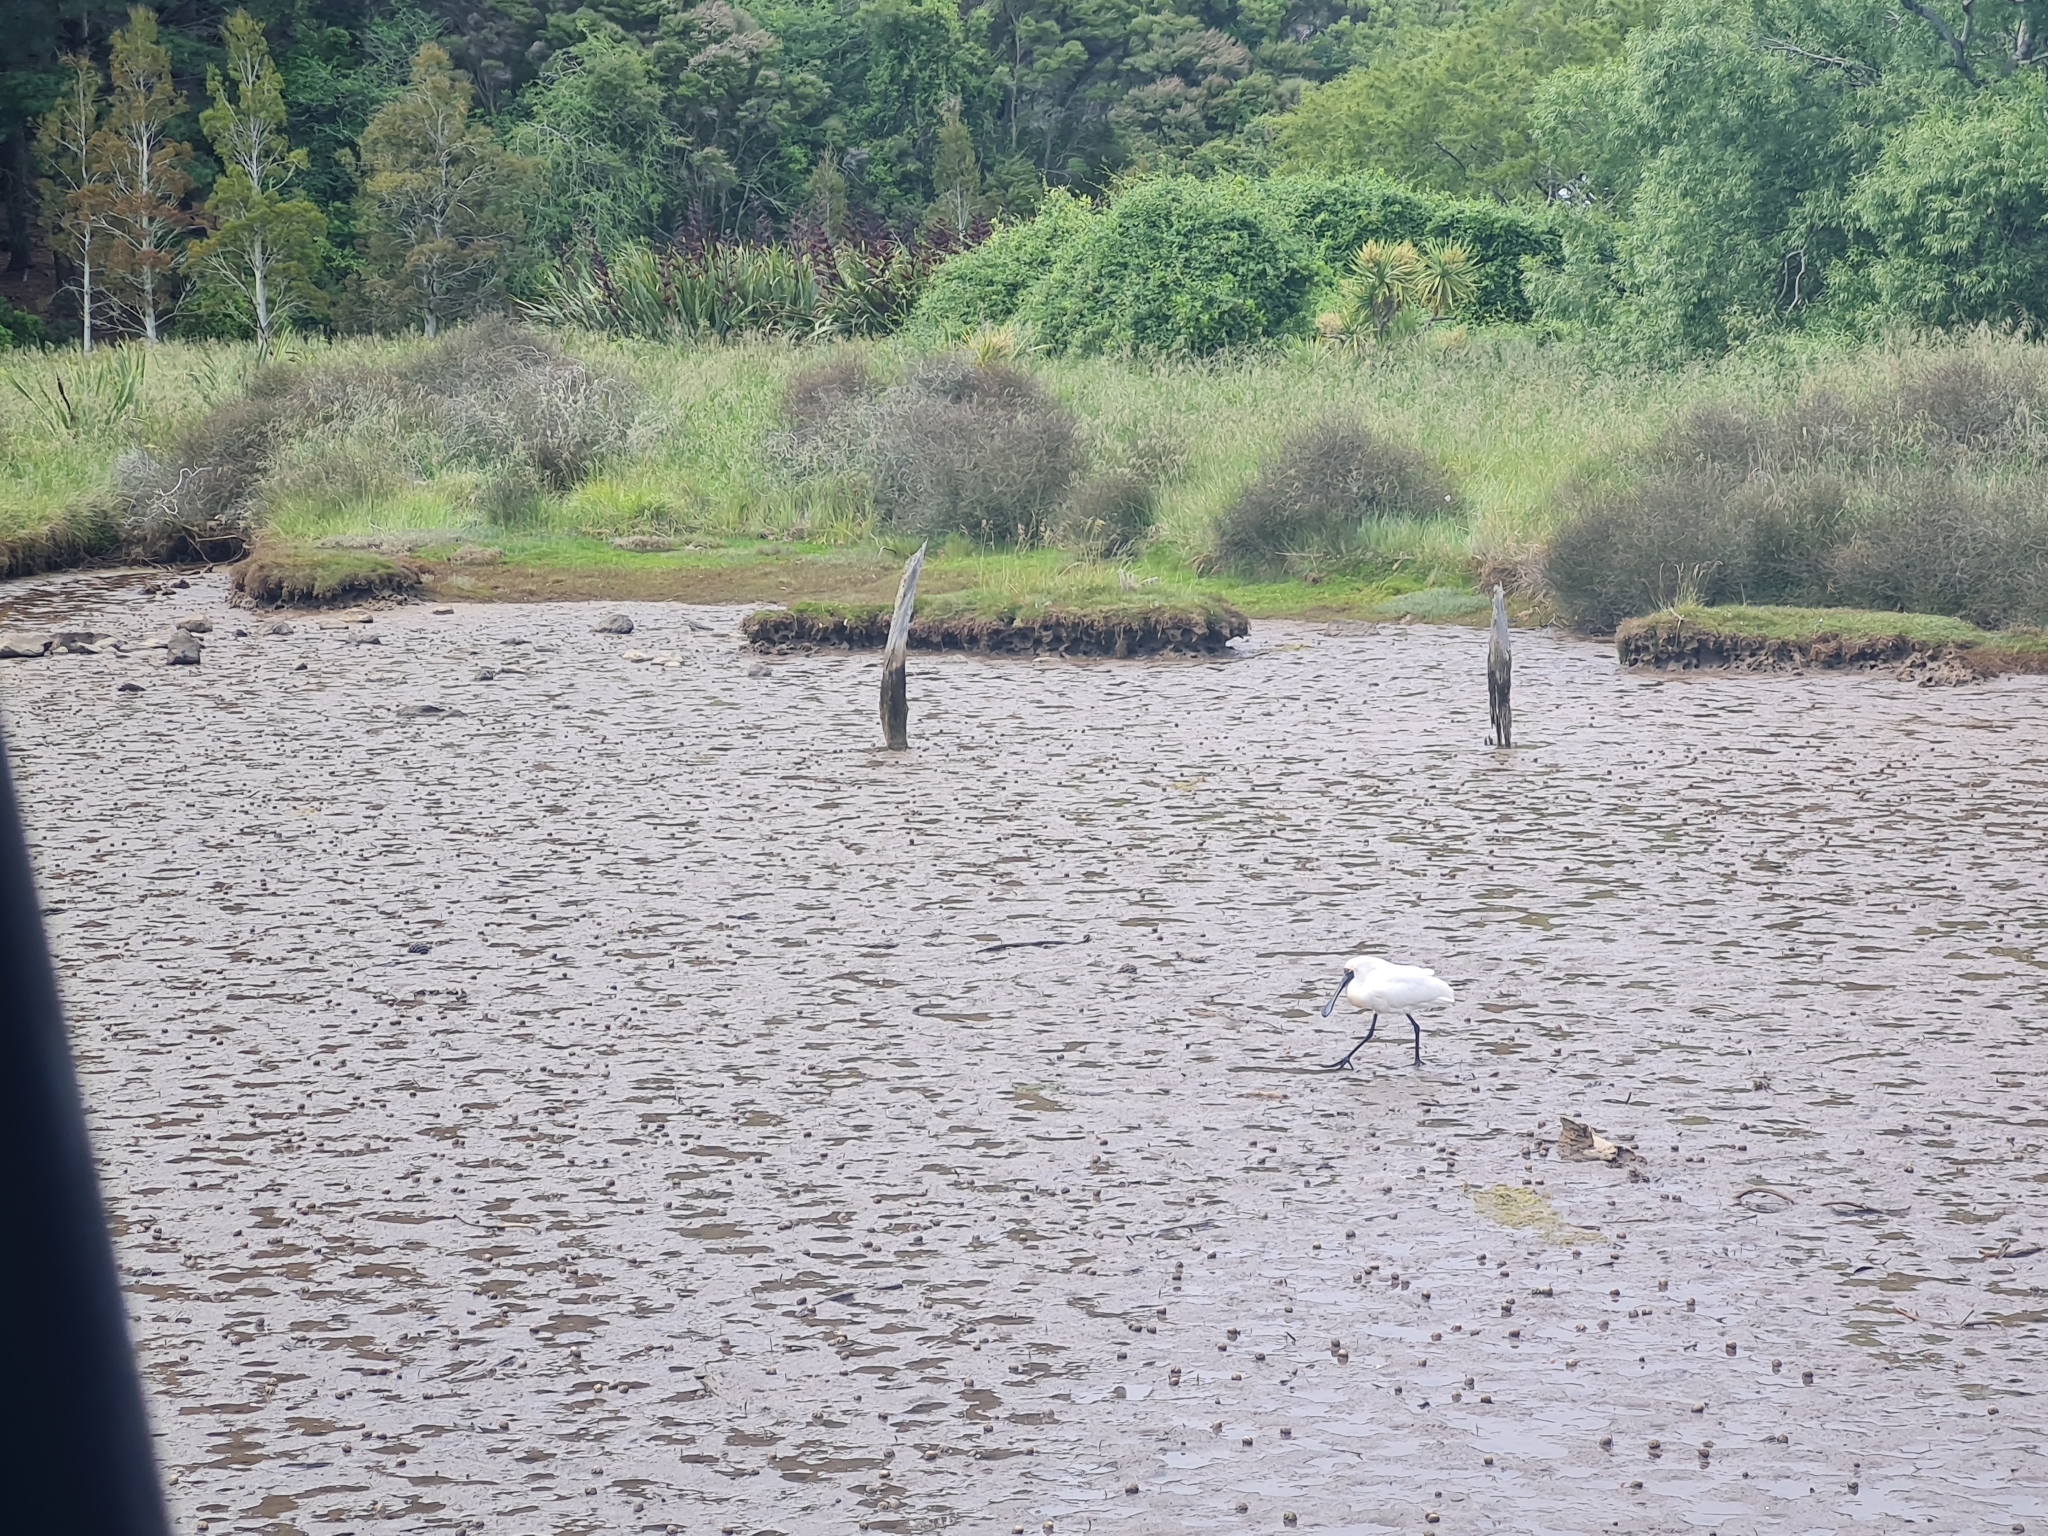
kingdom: Animalia
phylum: Chordata
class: Aves
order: Pelecaniformes
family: Threskiornithidae
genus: Platalea
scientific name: Platalea regia
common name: Royal spoonbill
